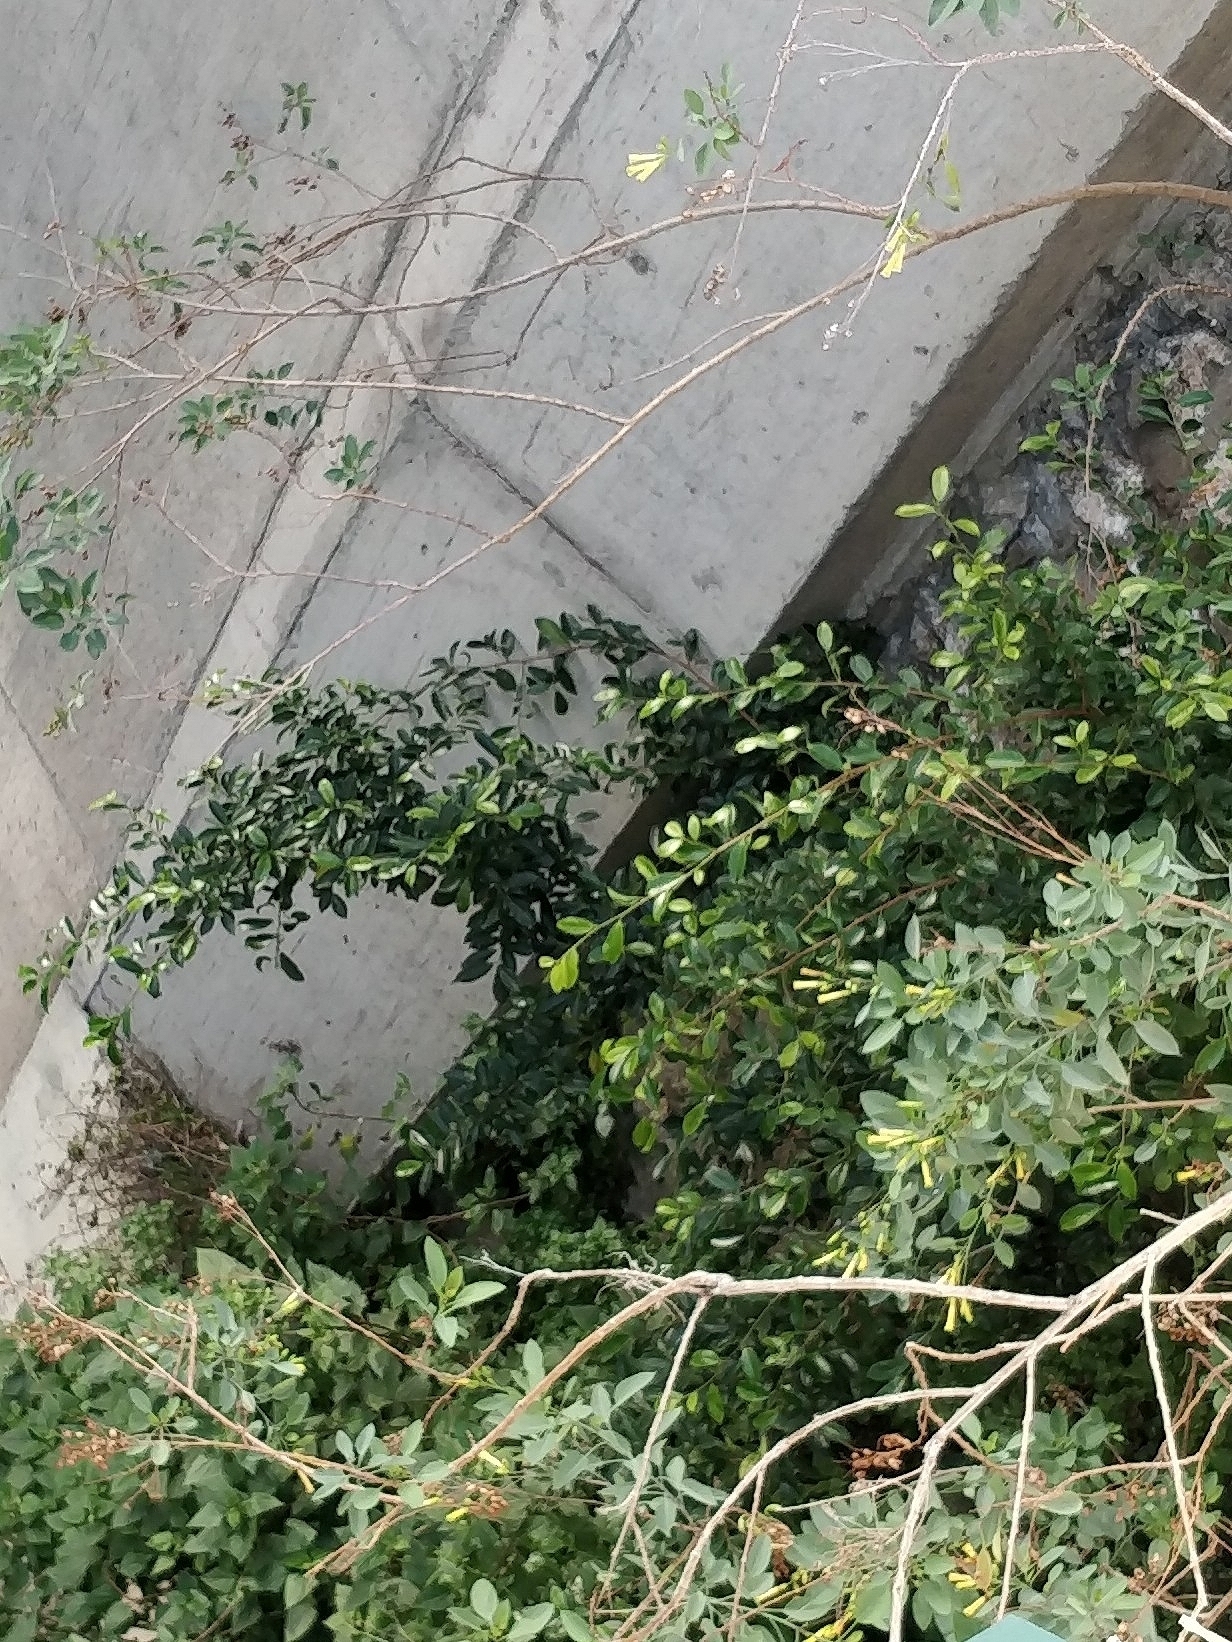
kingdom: Plantae
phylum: Tracheophyta
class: Magnoliopsida
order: Rosales
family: Moraceae
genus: Ficus
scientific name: Ficus benjamina
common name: Weeping fig
